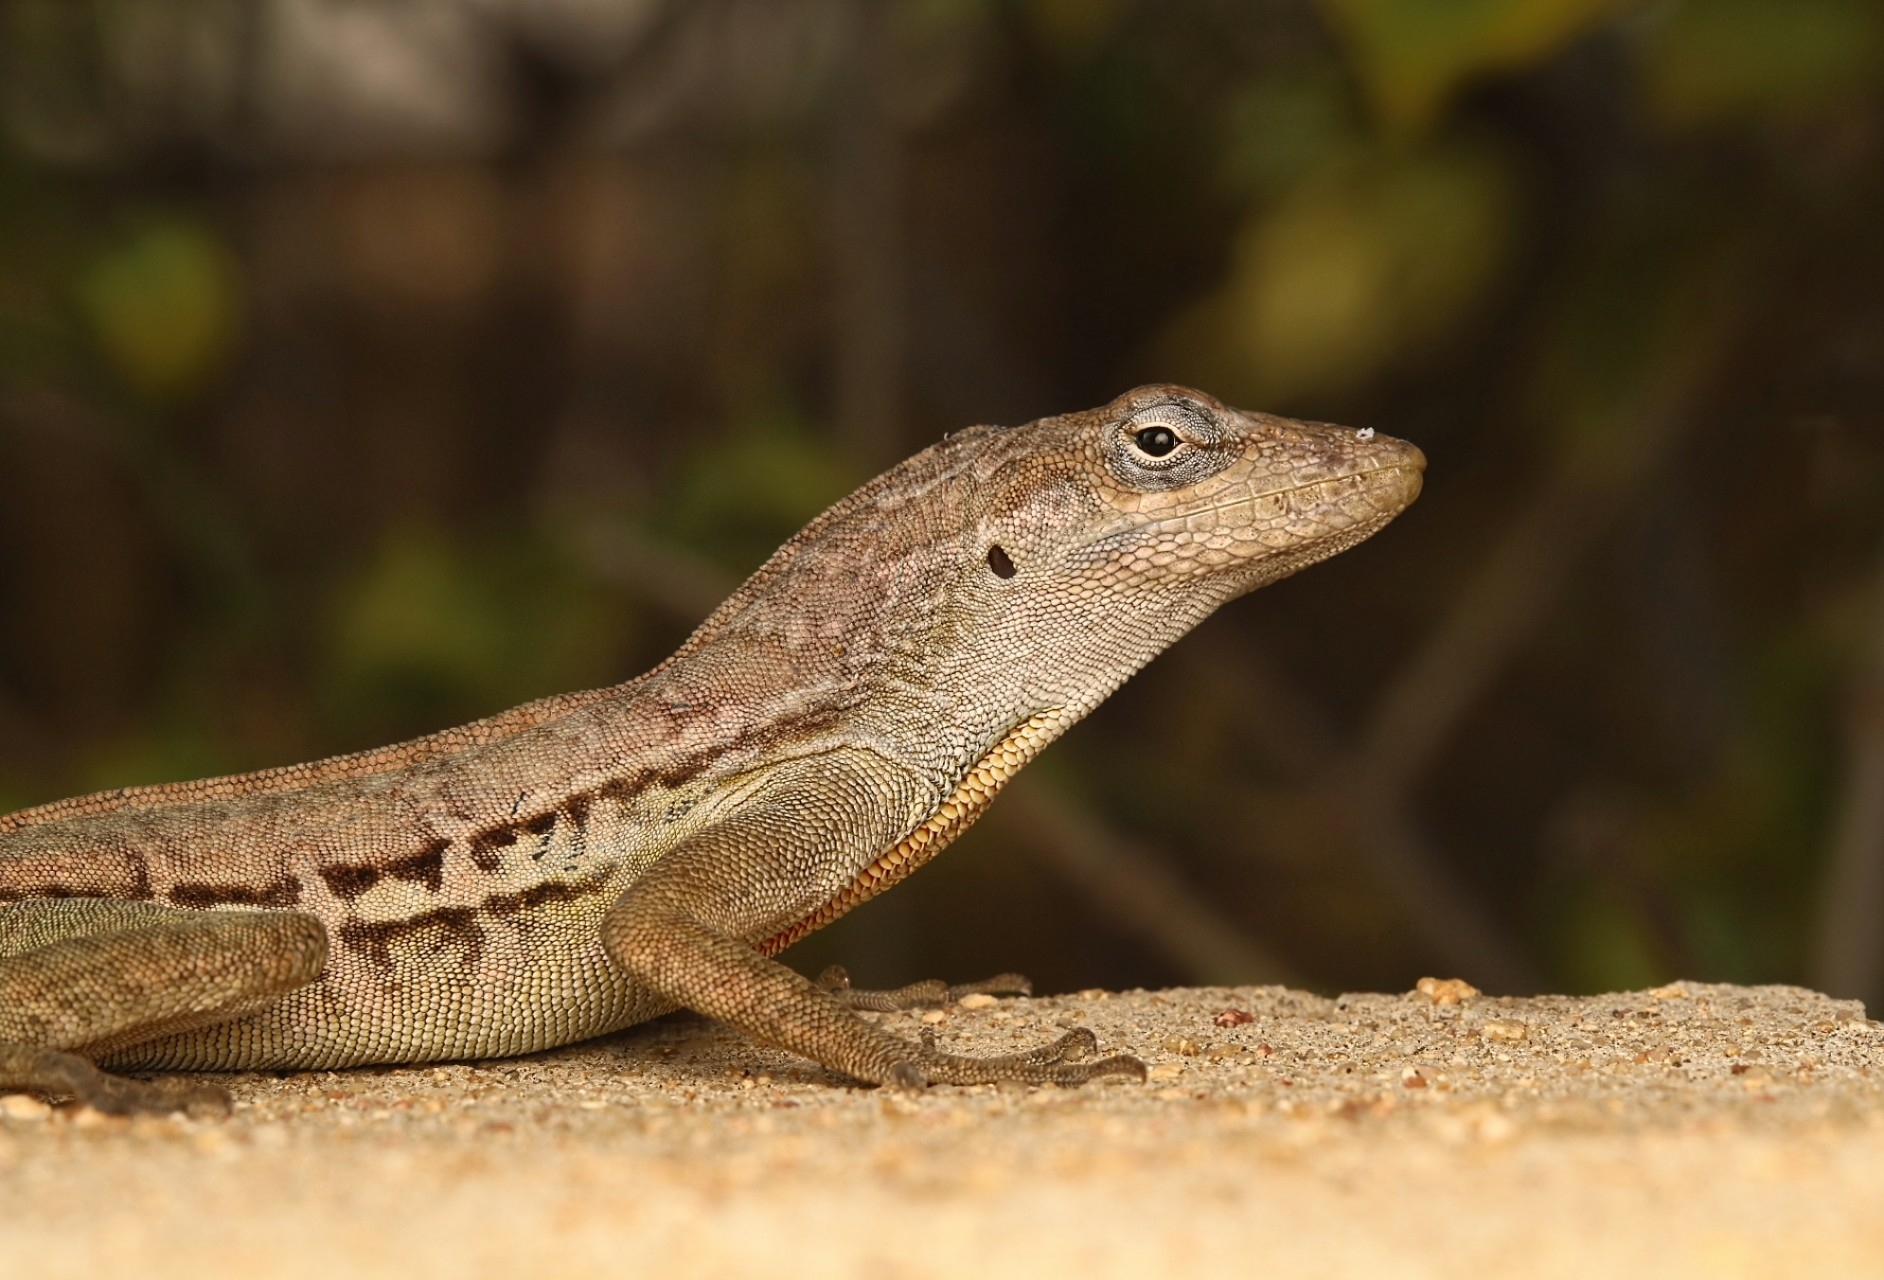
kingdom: Animalia
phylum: Chordata
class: Squamata
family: Dactyloidae
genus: Anolis
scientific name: Anolis lineatus
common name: Striped anole
